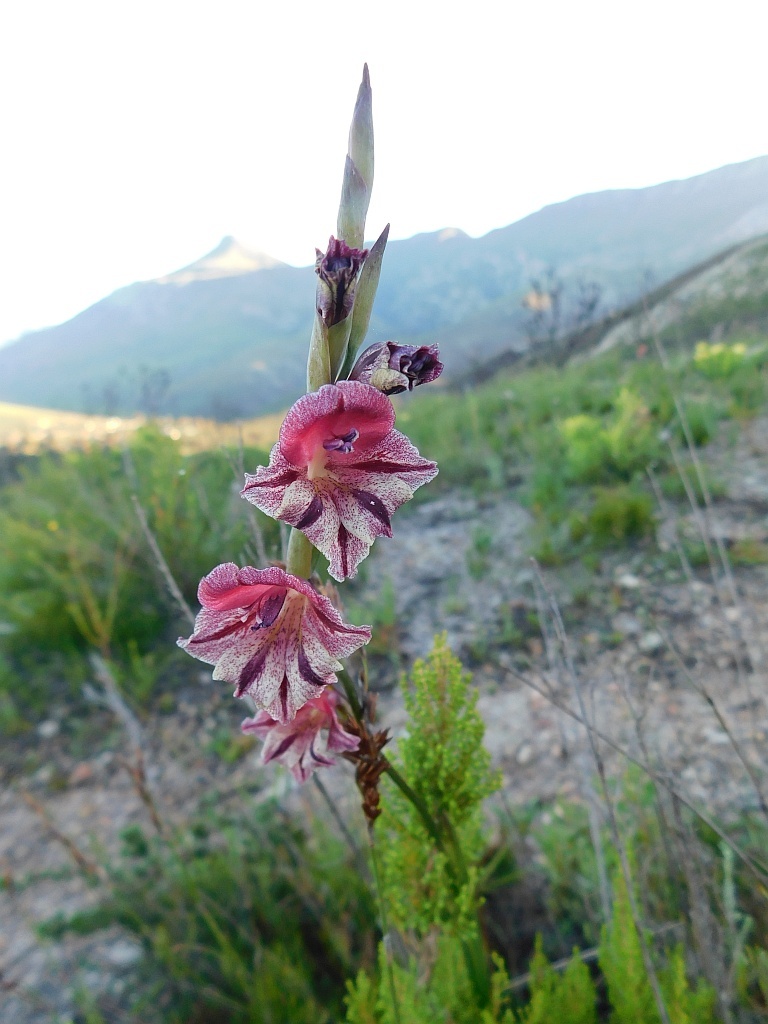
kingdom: Plantae
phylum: Tracheophyta
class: Liliopsida
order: Asparagales
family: Iridaceae
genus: Gladiolus
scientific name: Gladiolus guthriei
